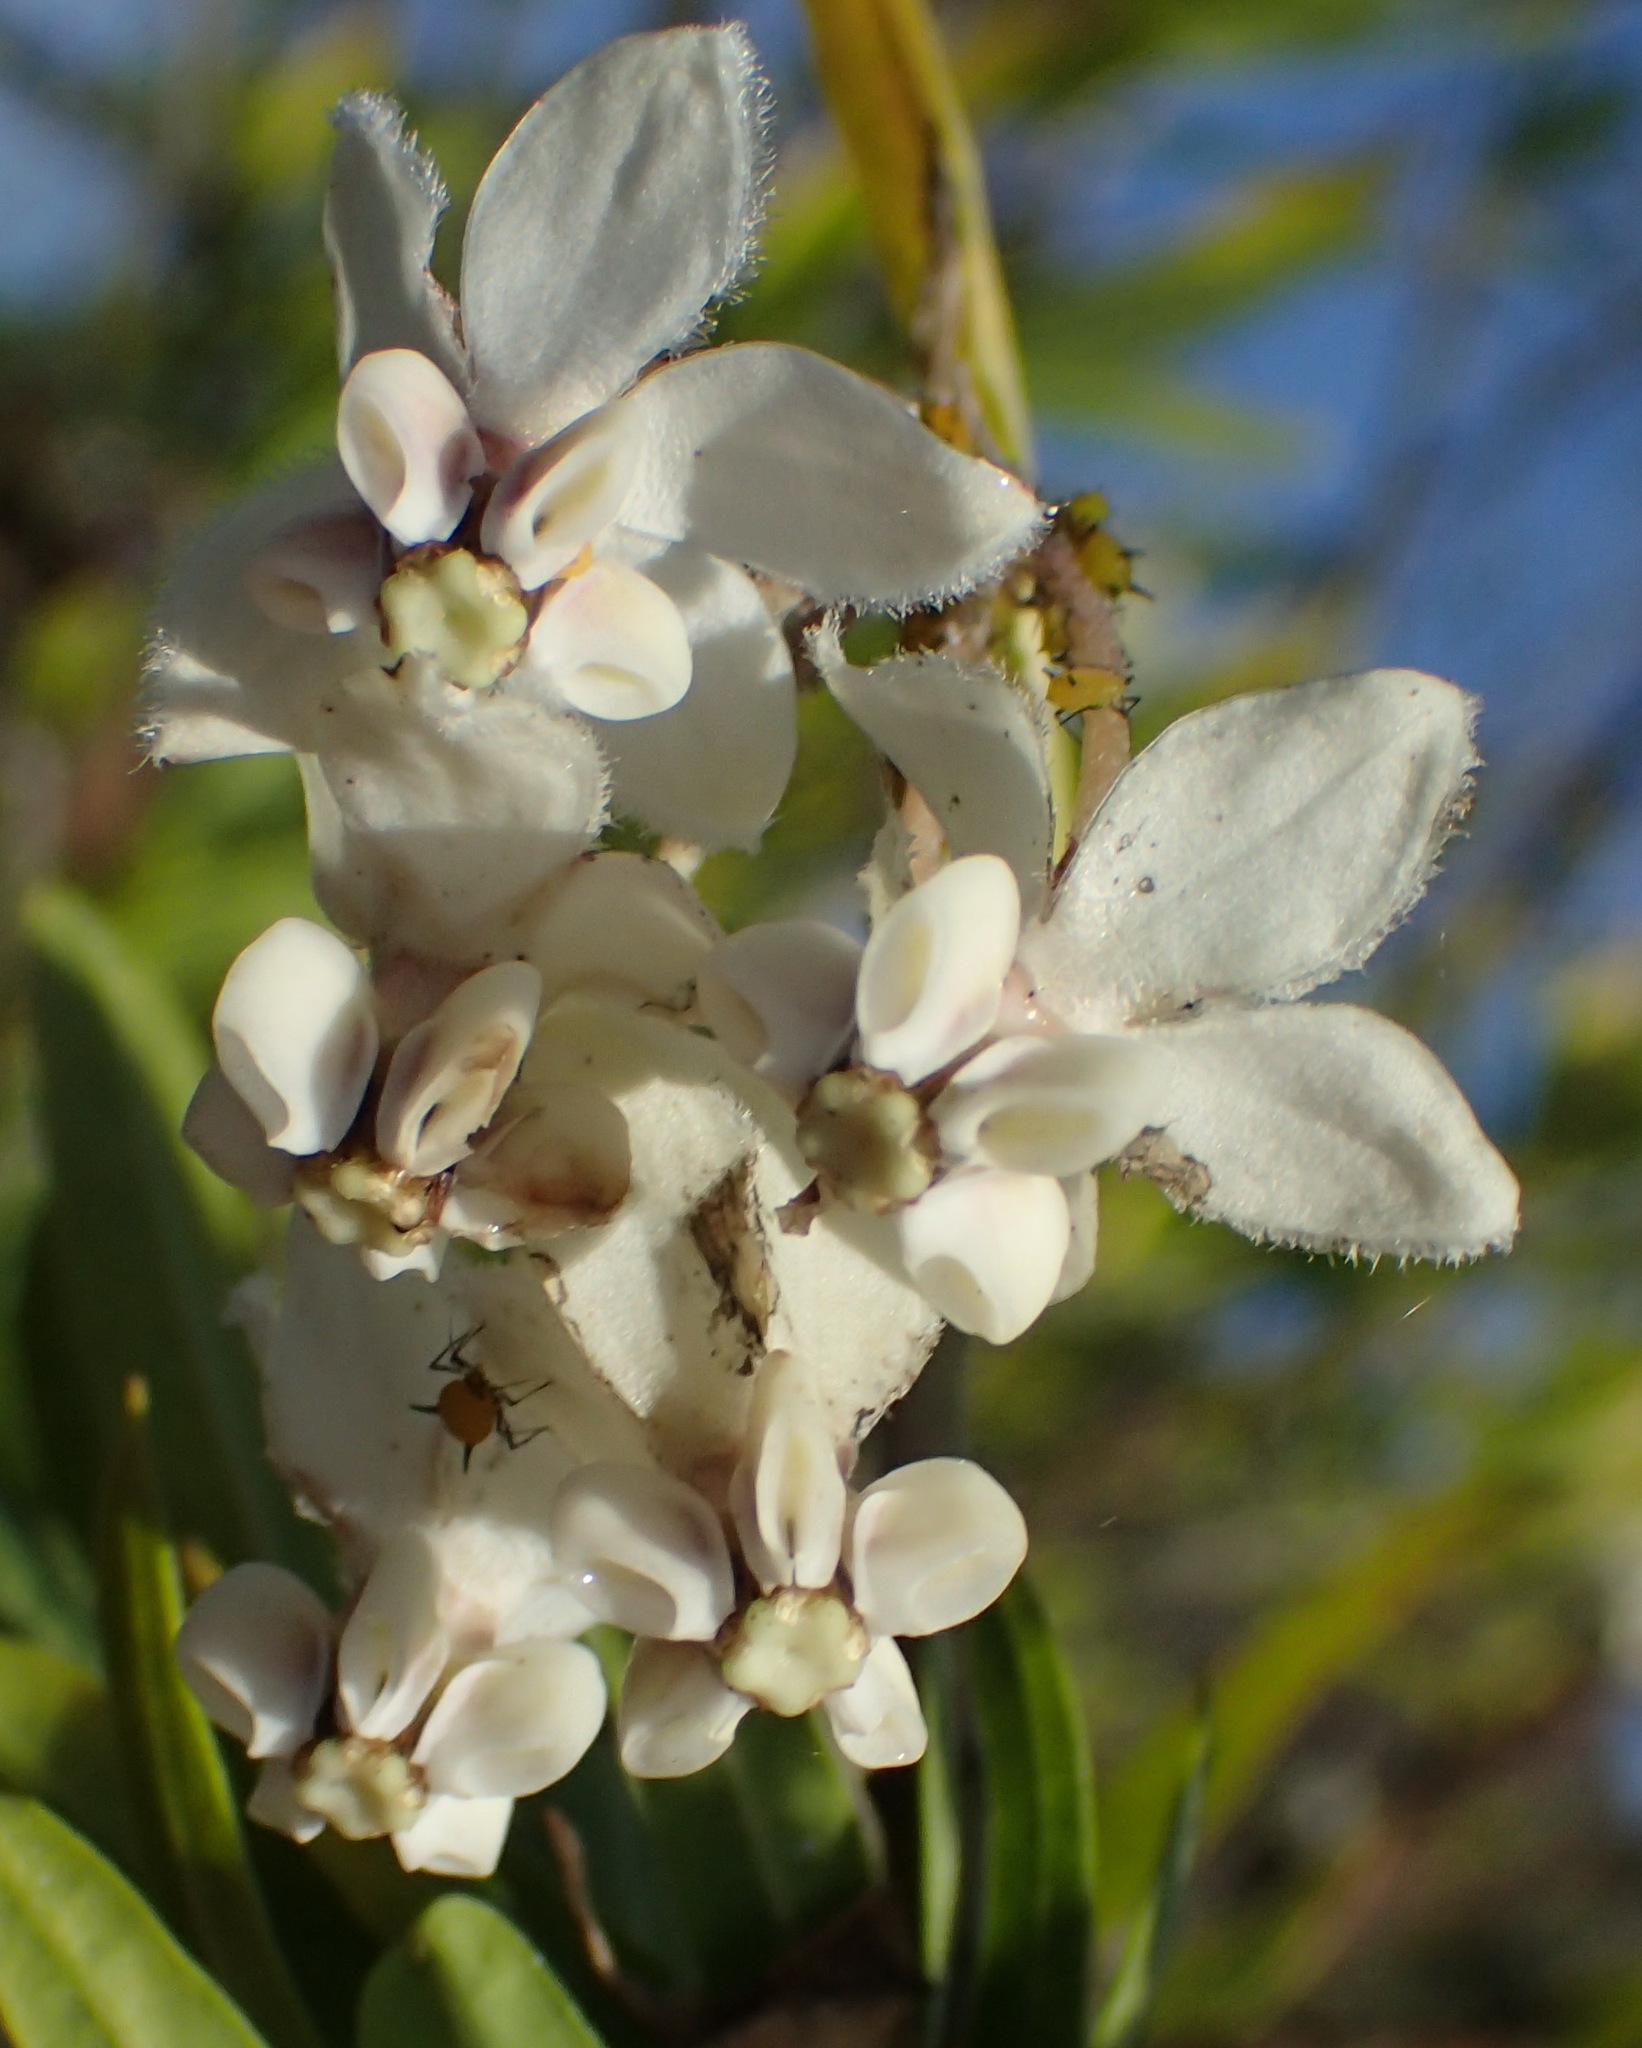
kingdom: Plantae
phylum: Tracheophyta
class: Magnoliopsida
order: Gentianales
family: Apocynaceae
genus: Gomphocarpus
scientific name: Gomphocarpus physocarpus
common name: Balloon cotton bush
